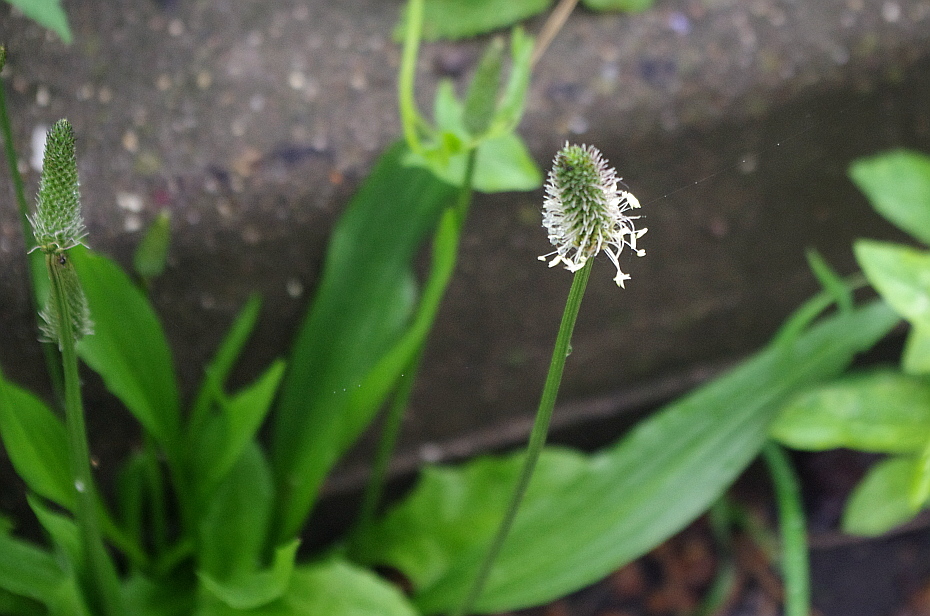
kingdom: Plantae
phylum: Tracheophyta
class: Magnoliopsida
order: Lamiales
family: Plantaginaceae
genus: Plantago
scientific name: Plantago lanceolata
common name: Ribwort plantain
